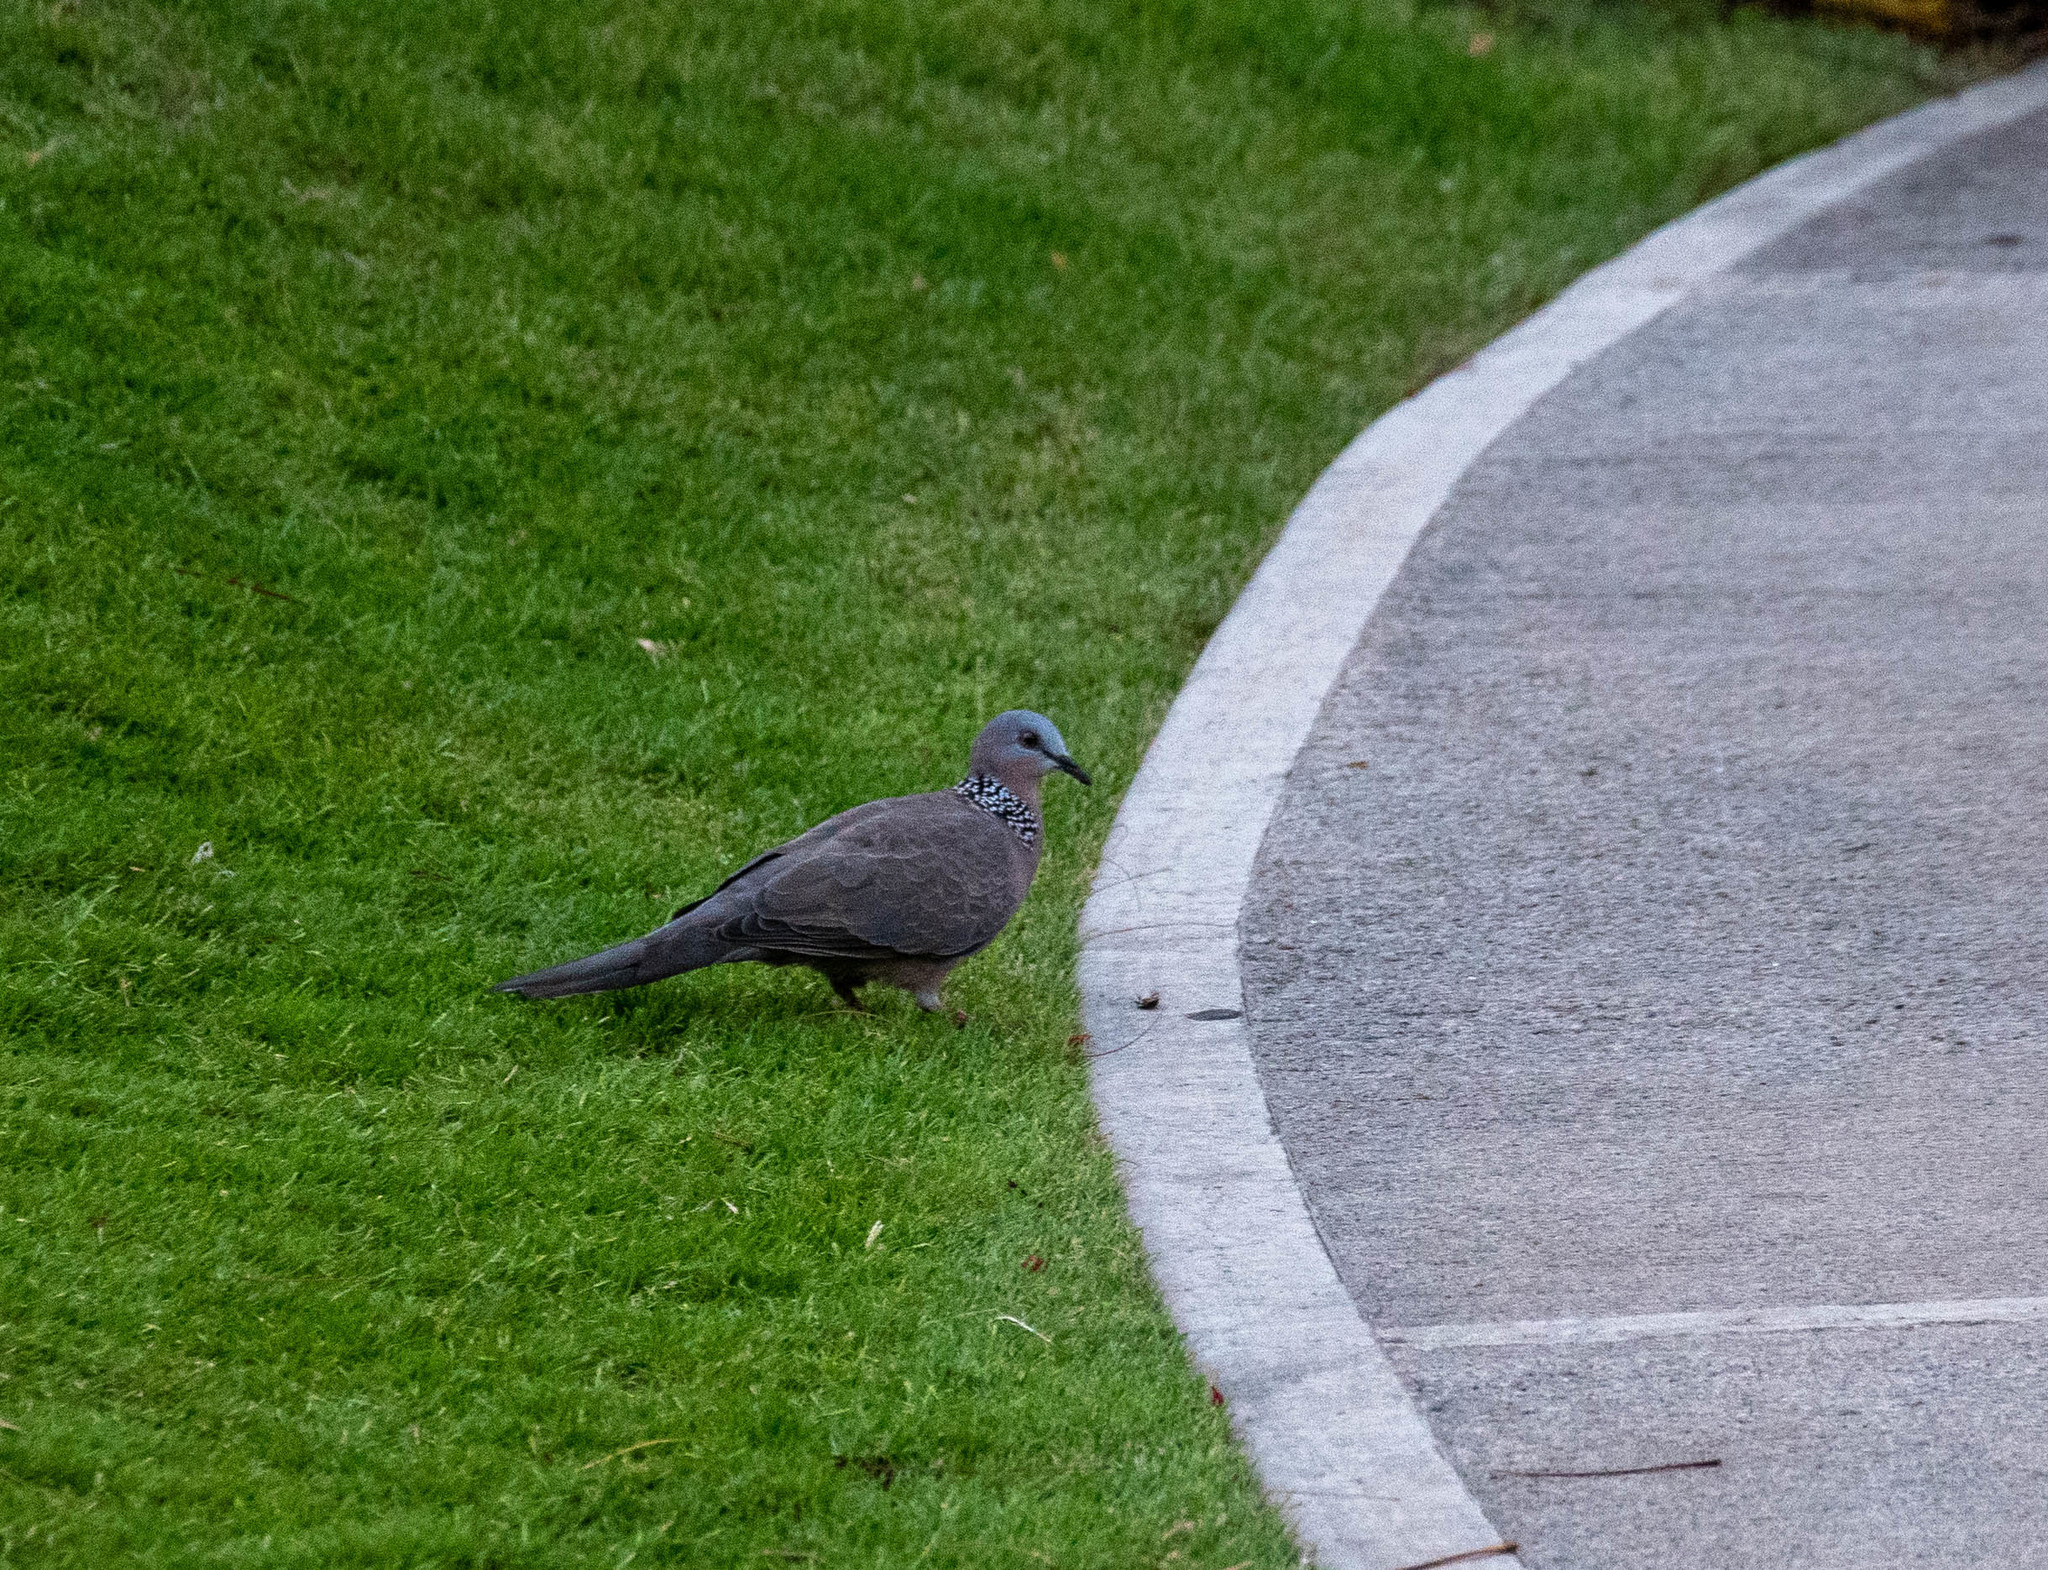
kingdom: Animalia
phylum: Chordata
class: Aves
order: Columbiformes
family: Columbidae
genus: Spilopelia
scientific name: Spilopelia chinensis
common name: Spotted dove
